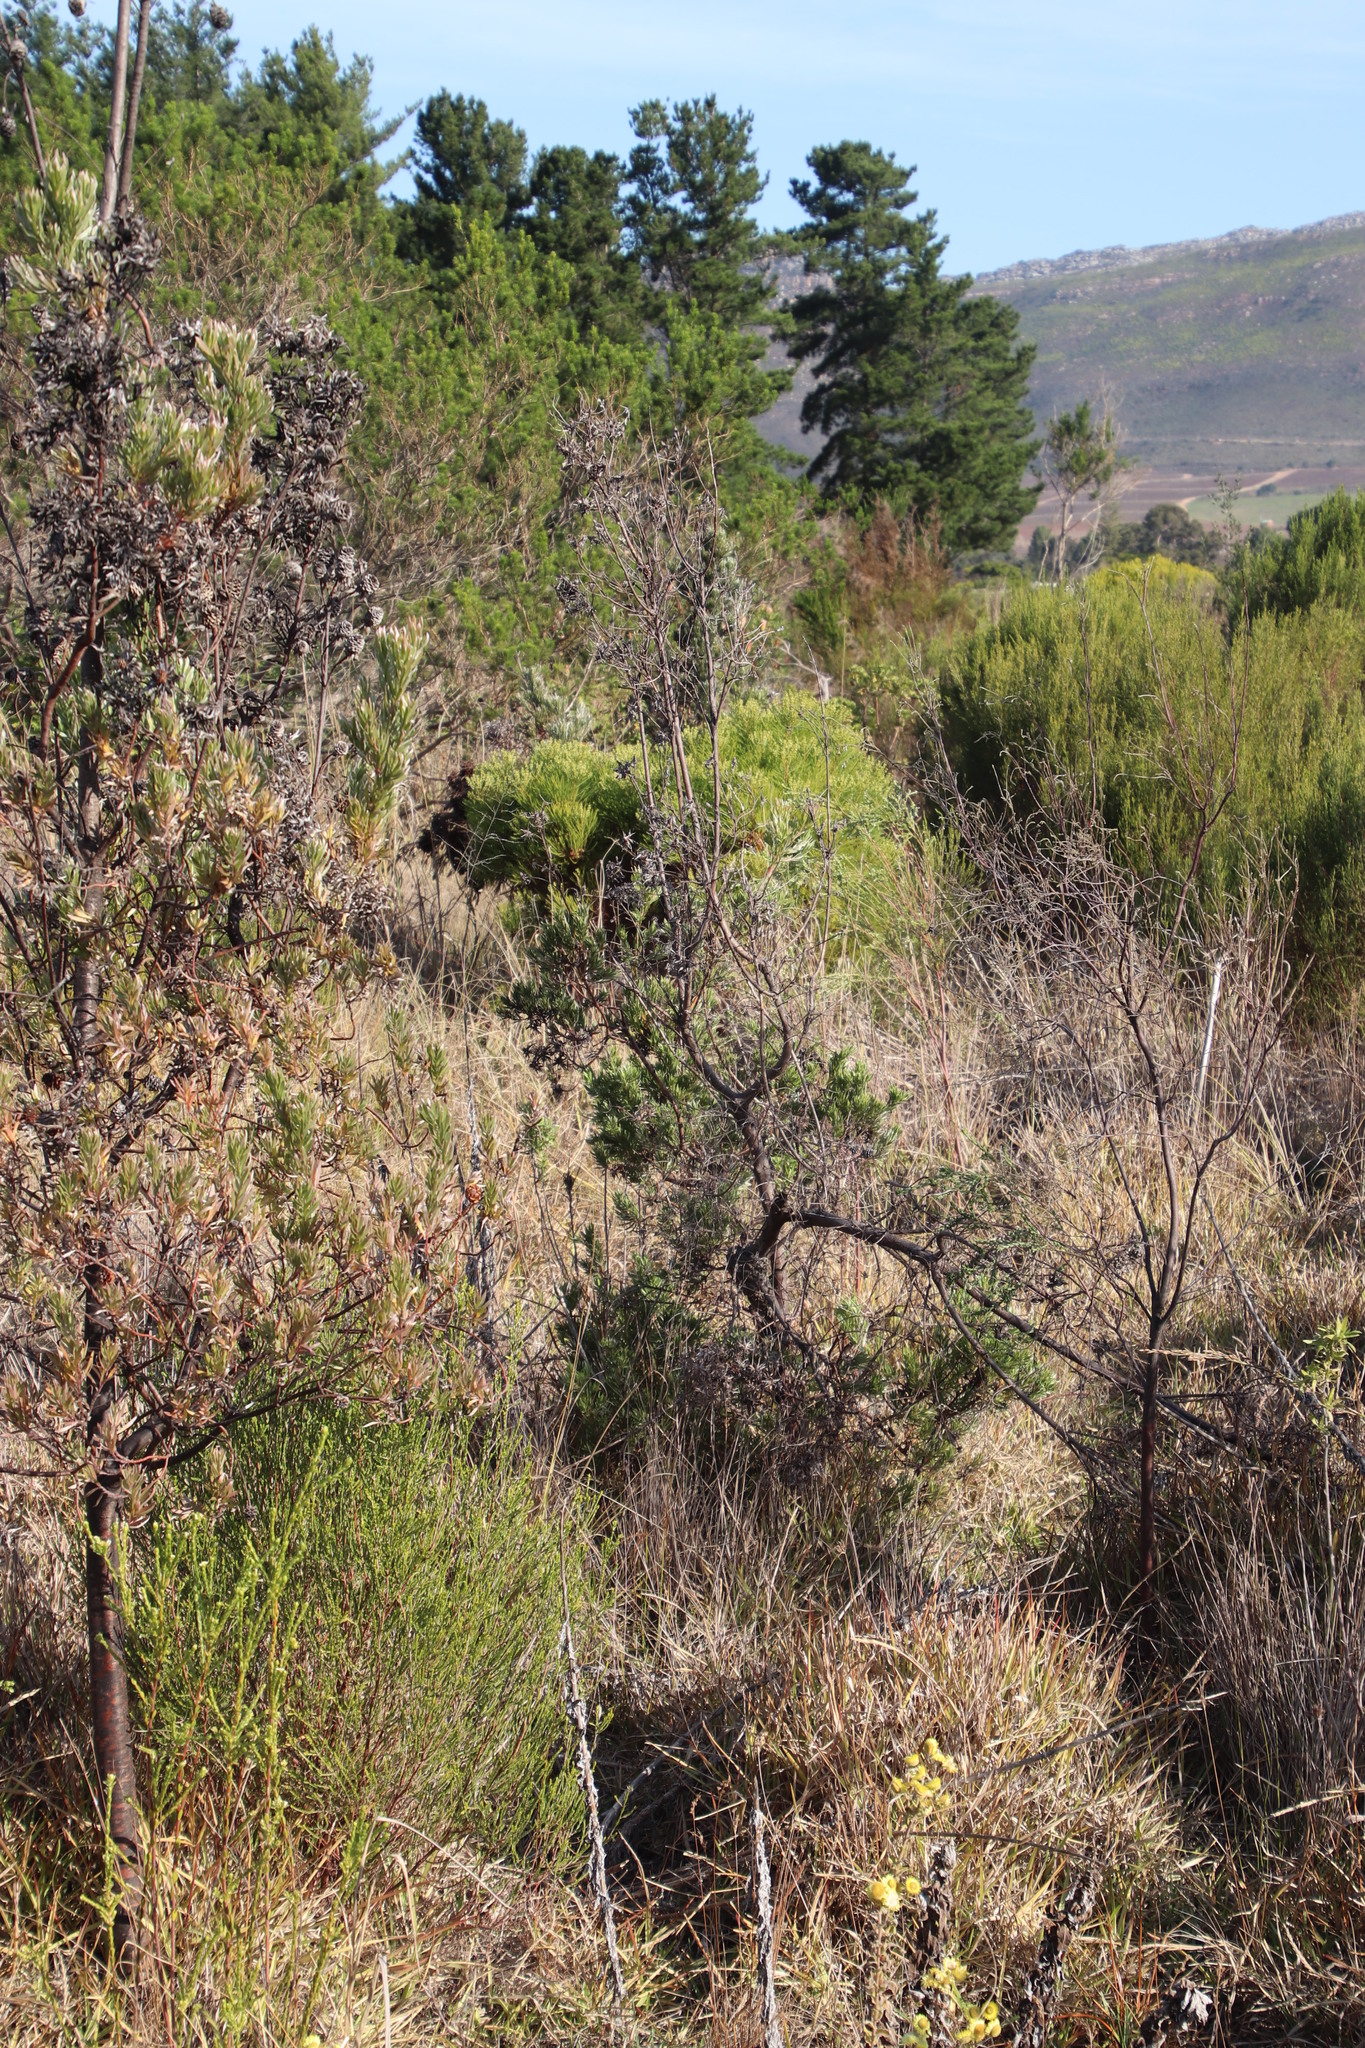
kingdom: Plantae
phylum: Tracheophyta
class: Magnoliopsida
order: Proteales
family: Proteaceae
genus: Leucadendron
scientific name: Leucadendron floridum
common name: Flats conebush
